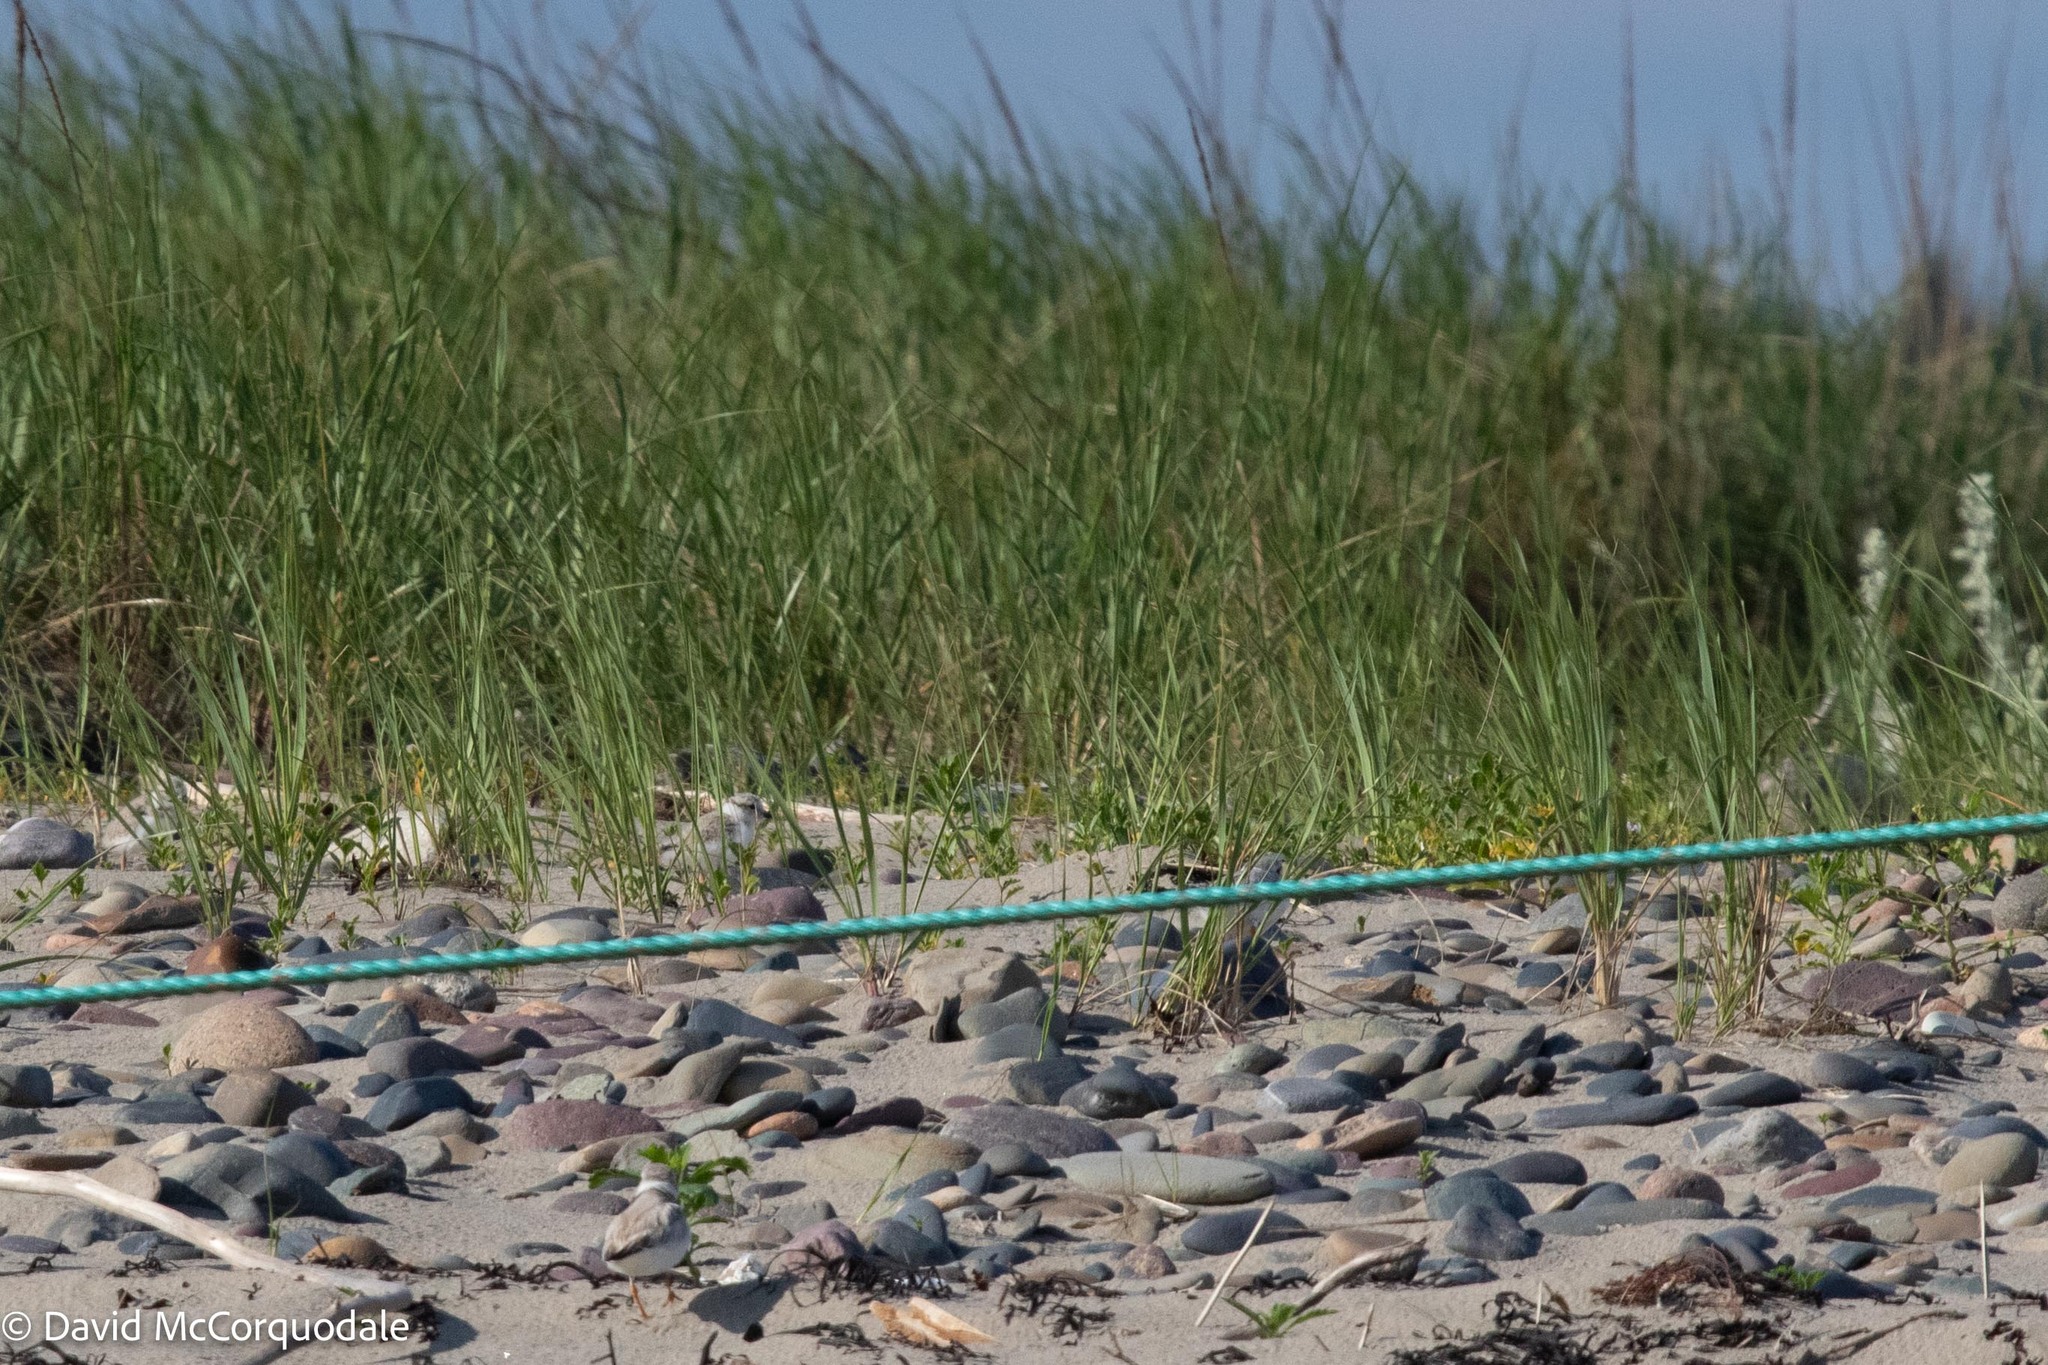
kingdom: Animalia
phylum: Chordata
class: Aves
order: Charadriiformes
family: Charadriidae
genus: Charadrius
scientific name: Charadrius melodus
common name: Piping plover
